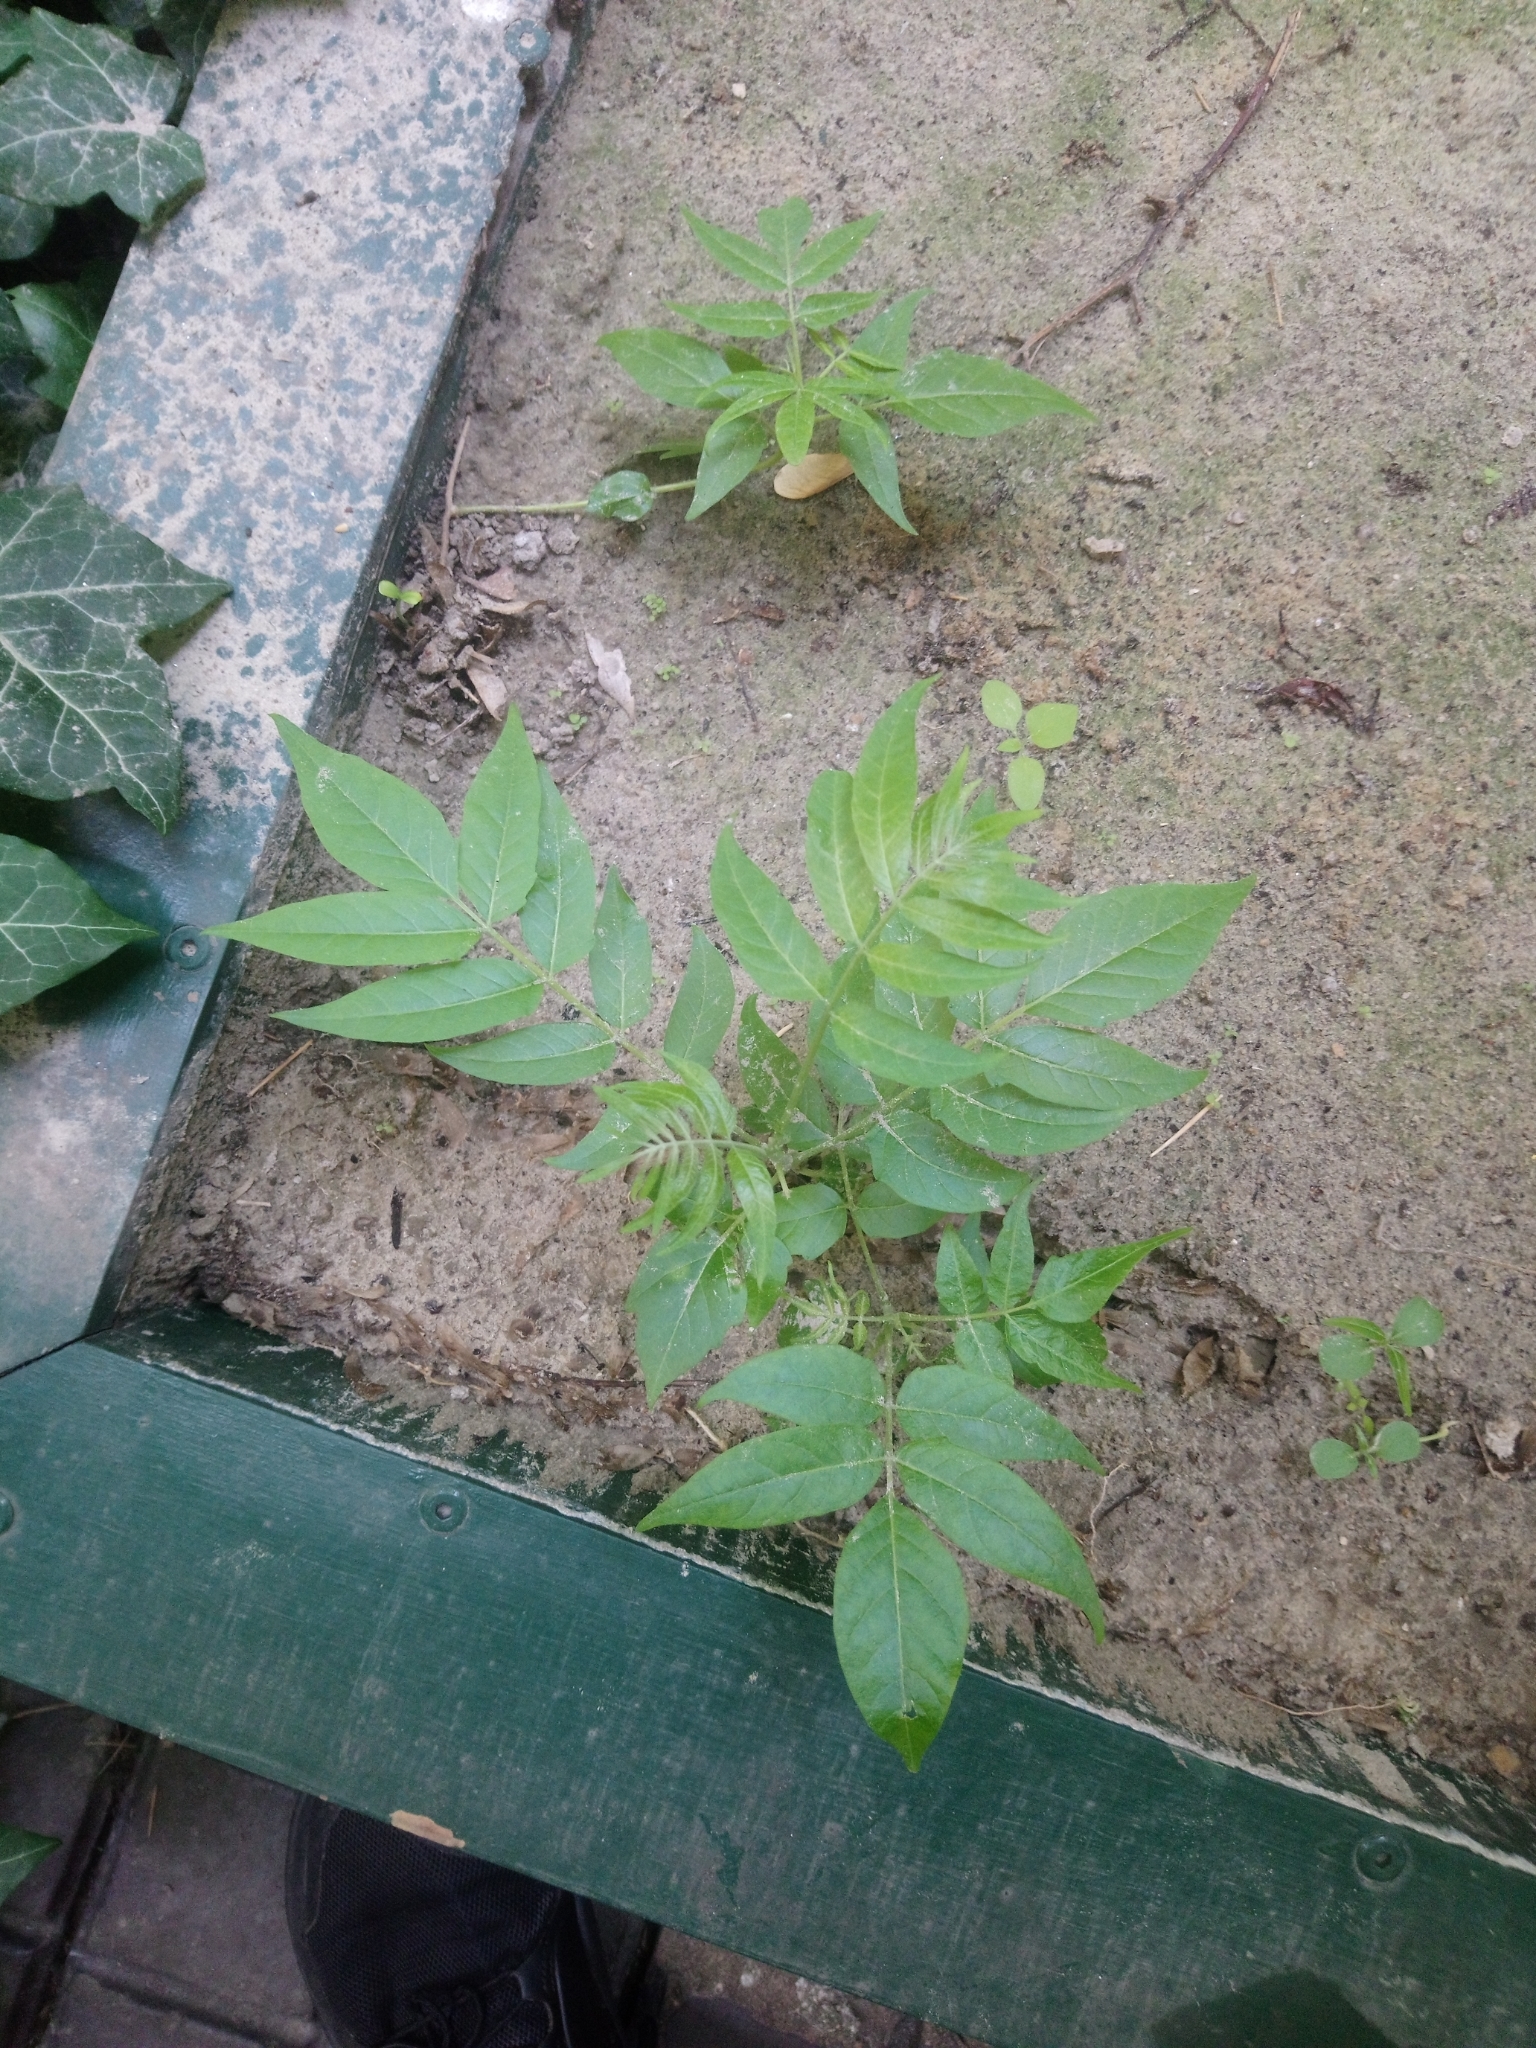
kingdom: Plantae
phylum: Tracheophyta
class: Magnoliopsida
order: Sapindales
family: Simaroubaceae
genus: Ailanthus
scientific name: Ailanthus altissima
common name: Tree-of-heaven
